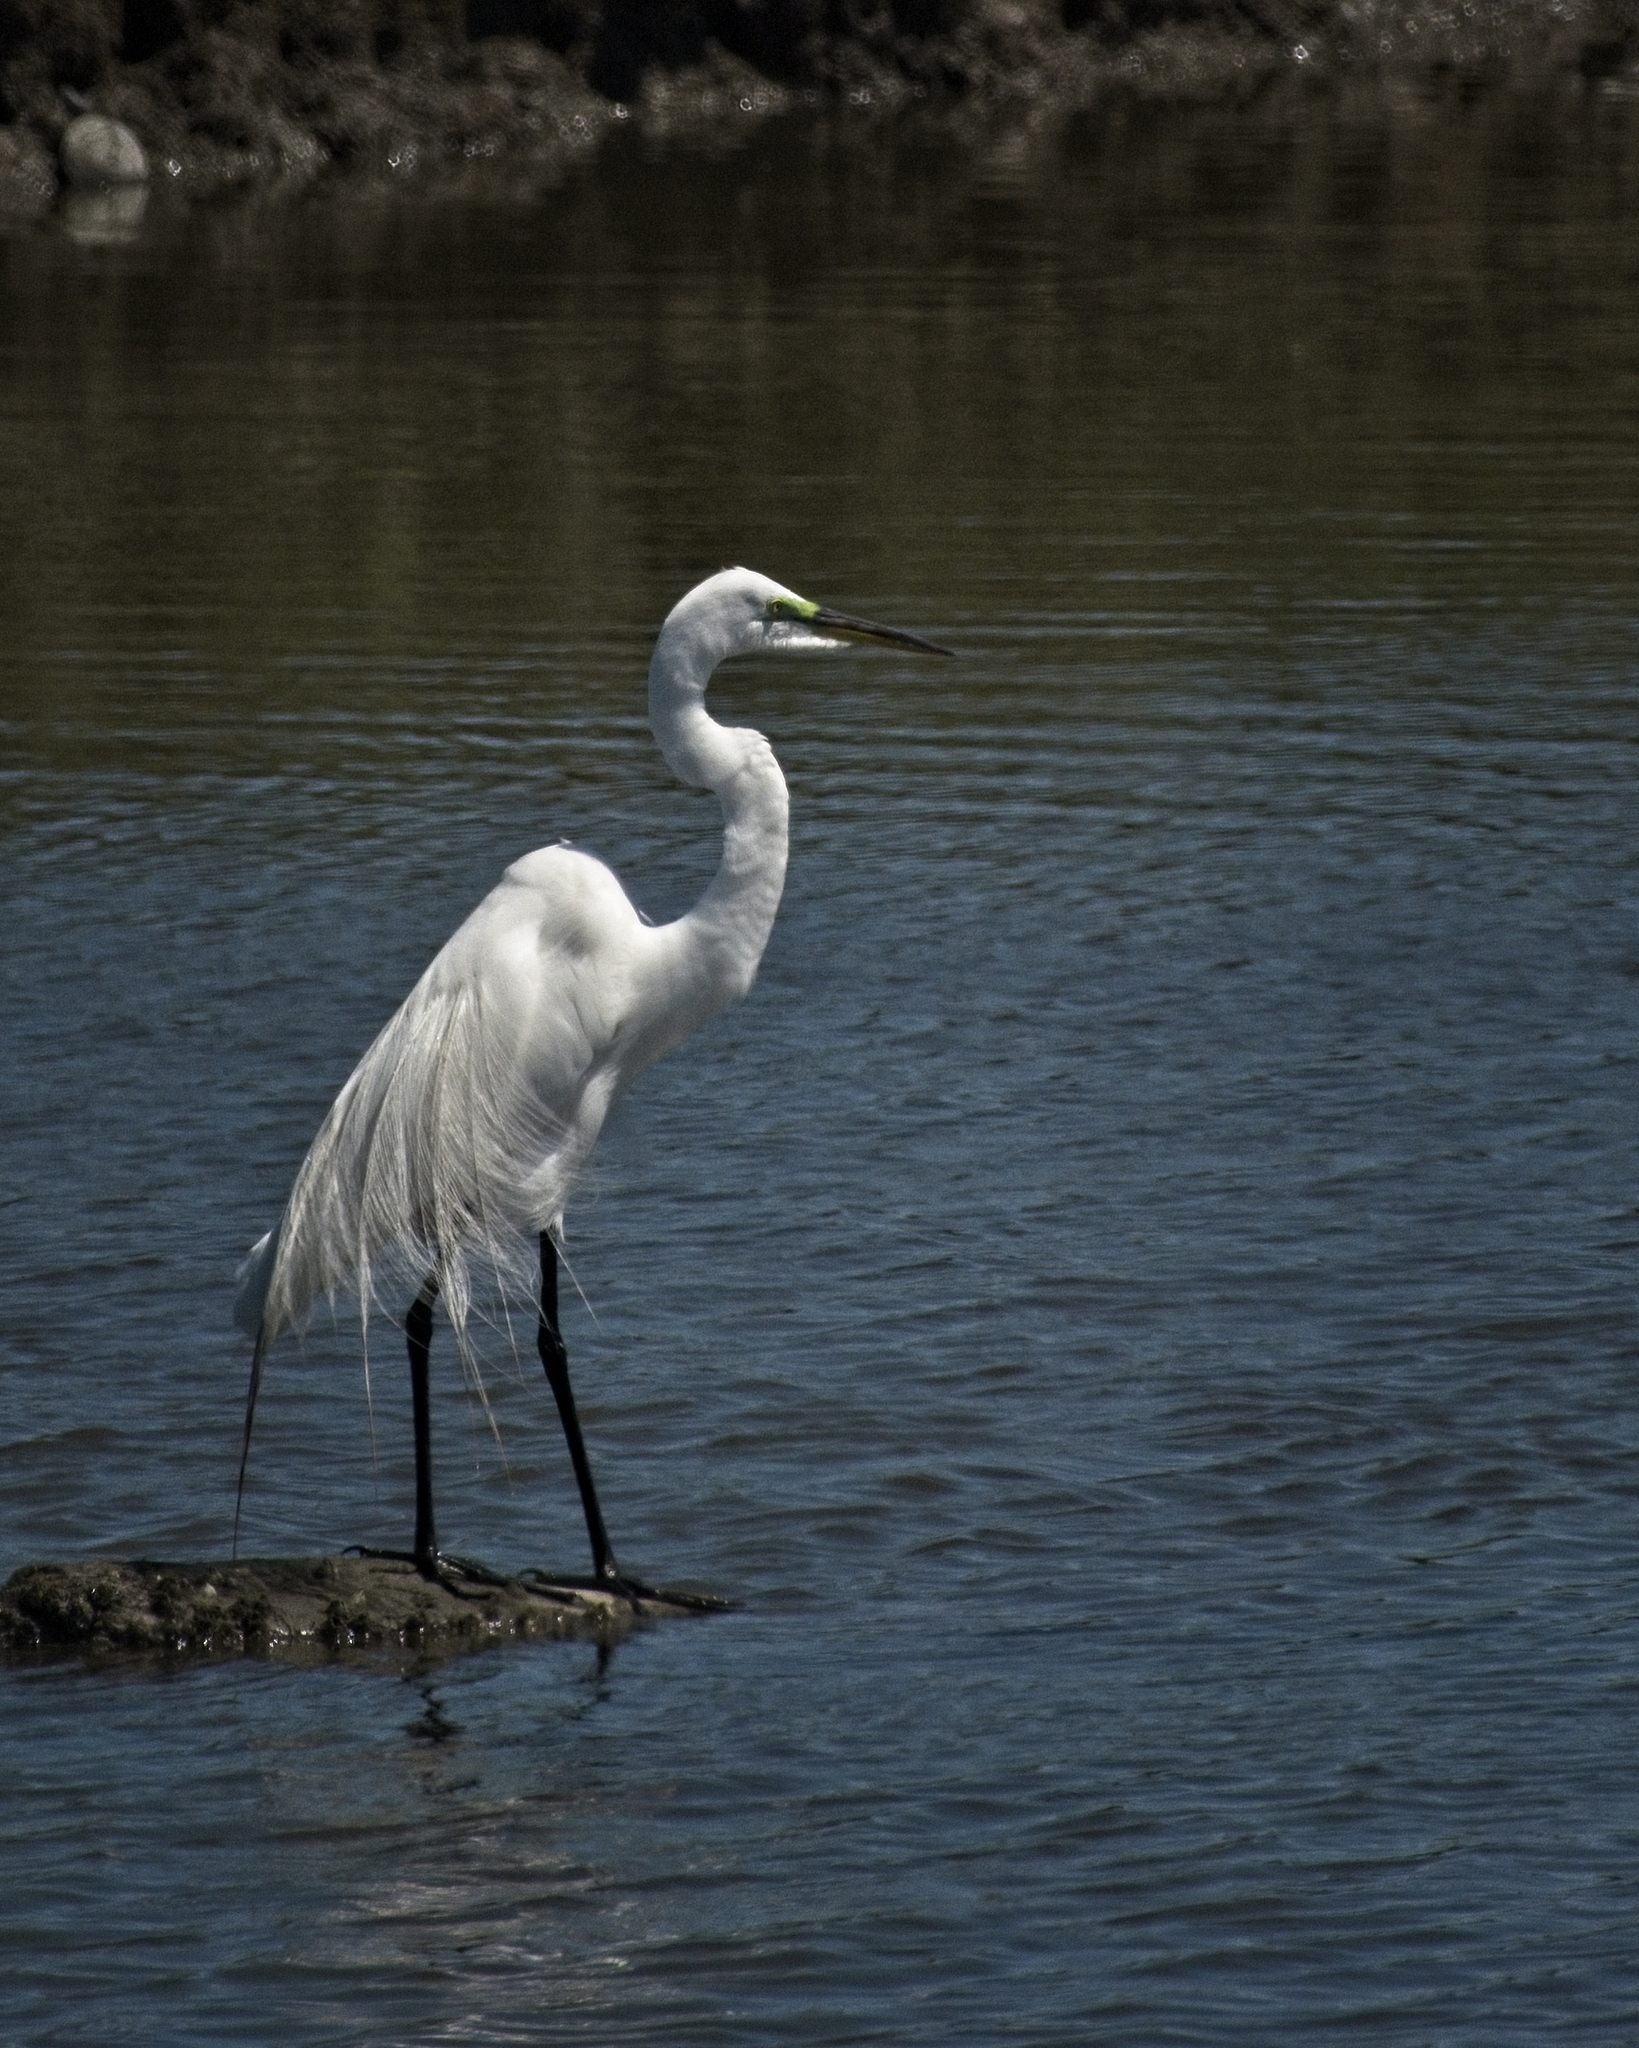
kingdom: Animalia
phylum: Chordata
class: Aves
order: Pelecaniformes
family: Ardeidae
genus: Ardea
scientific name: Ardea alba
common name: Great egret
